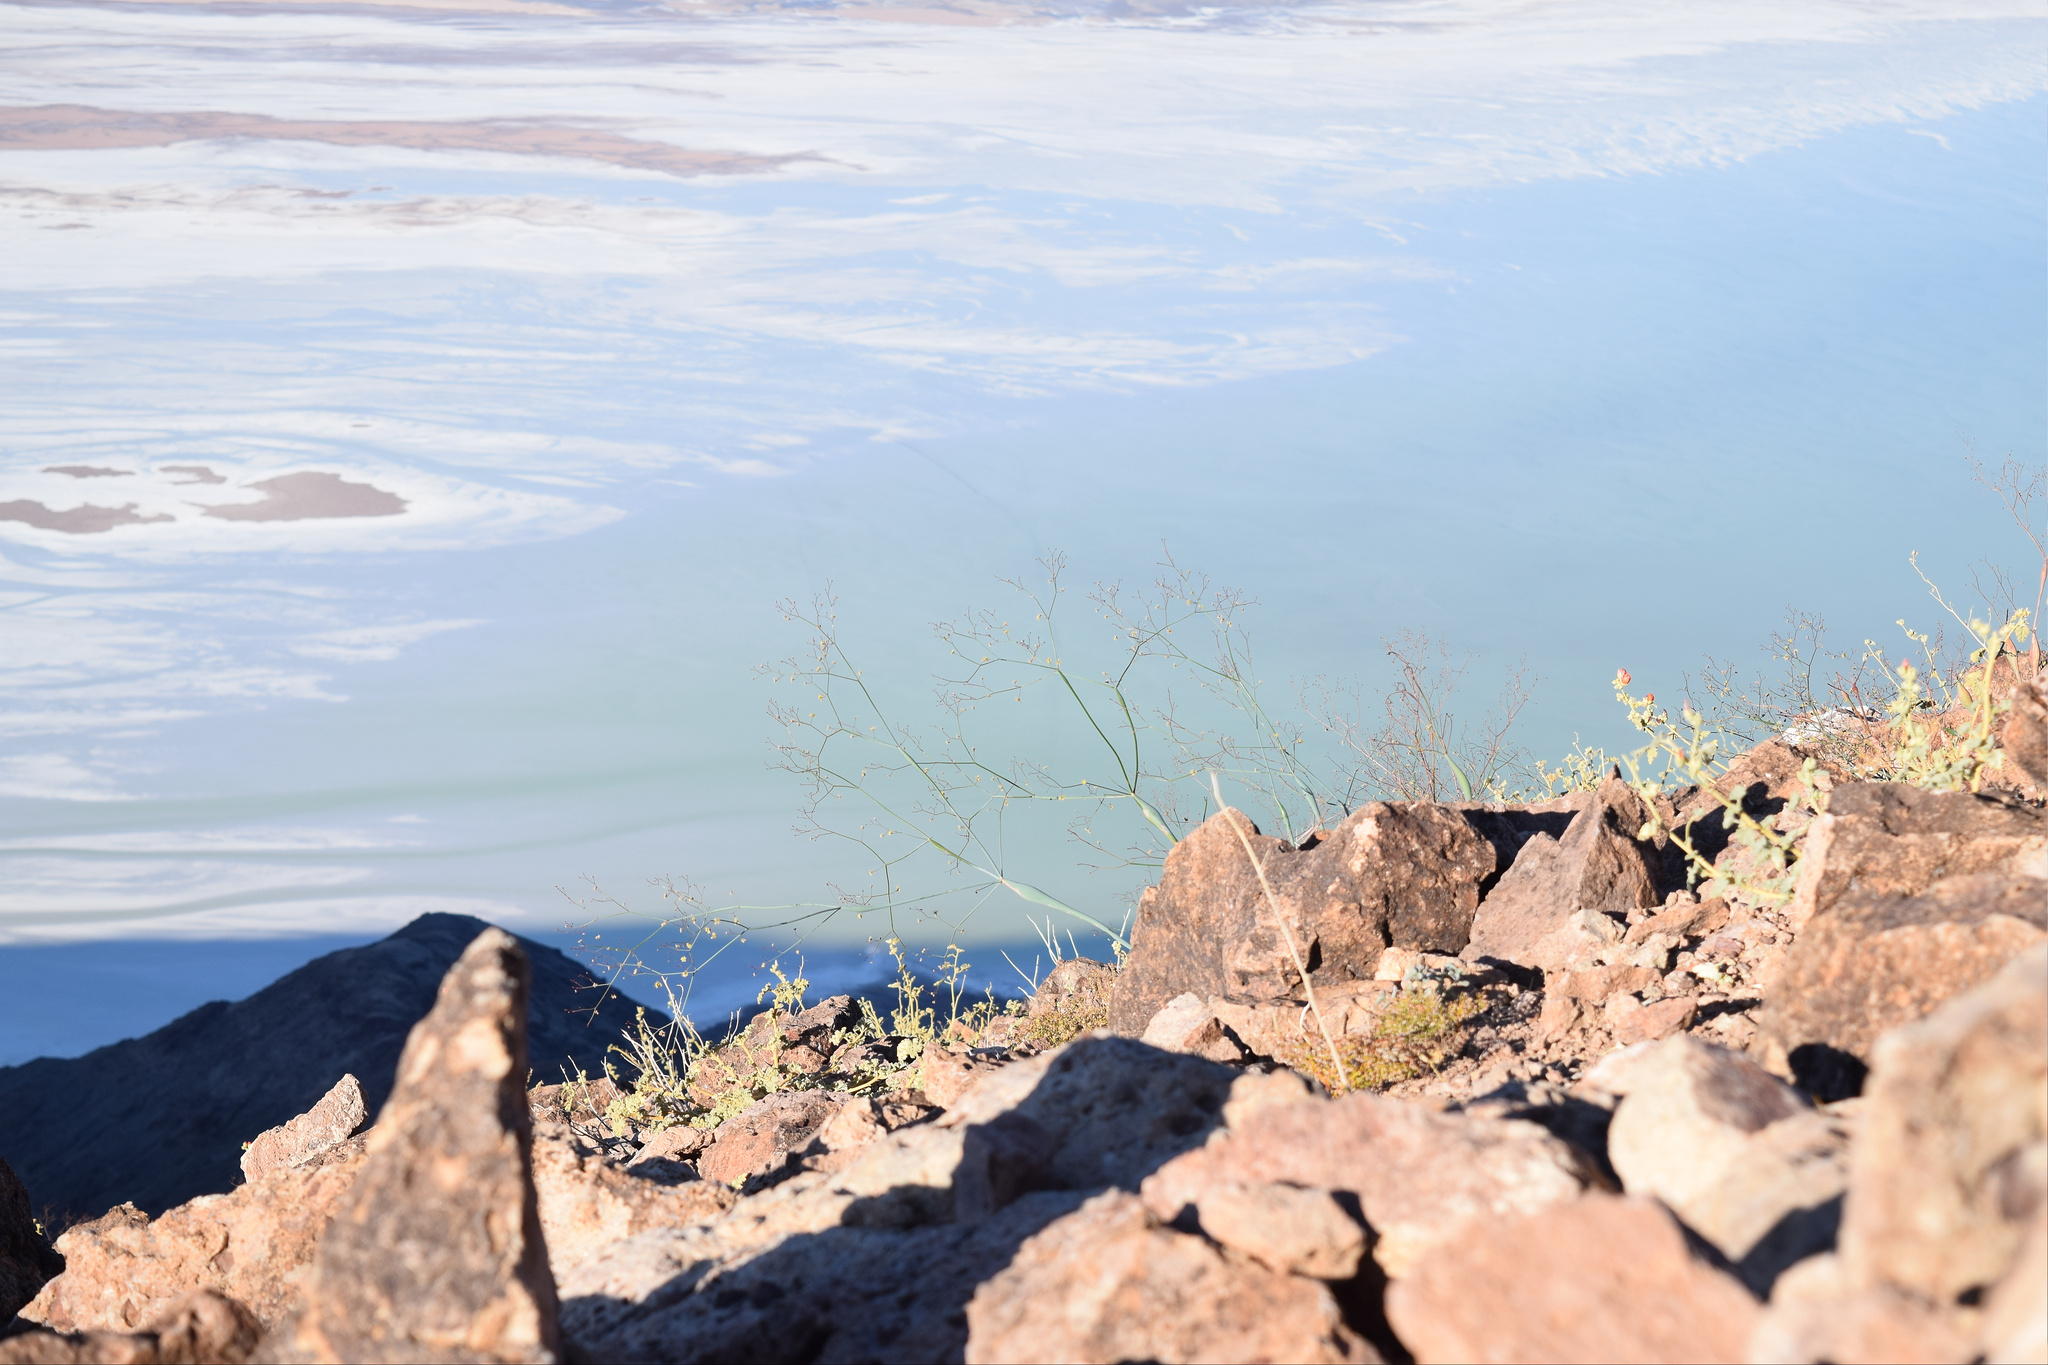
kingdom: Plantae
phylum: Tracheophyta
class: Magnoliopsida
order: Caryophyllales
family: Polygonaceae
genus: Eriogonum
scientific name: Eriogonum inflatum
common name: Desert trumpet
